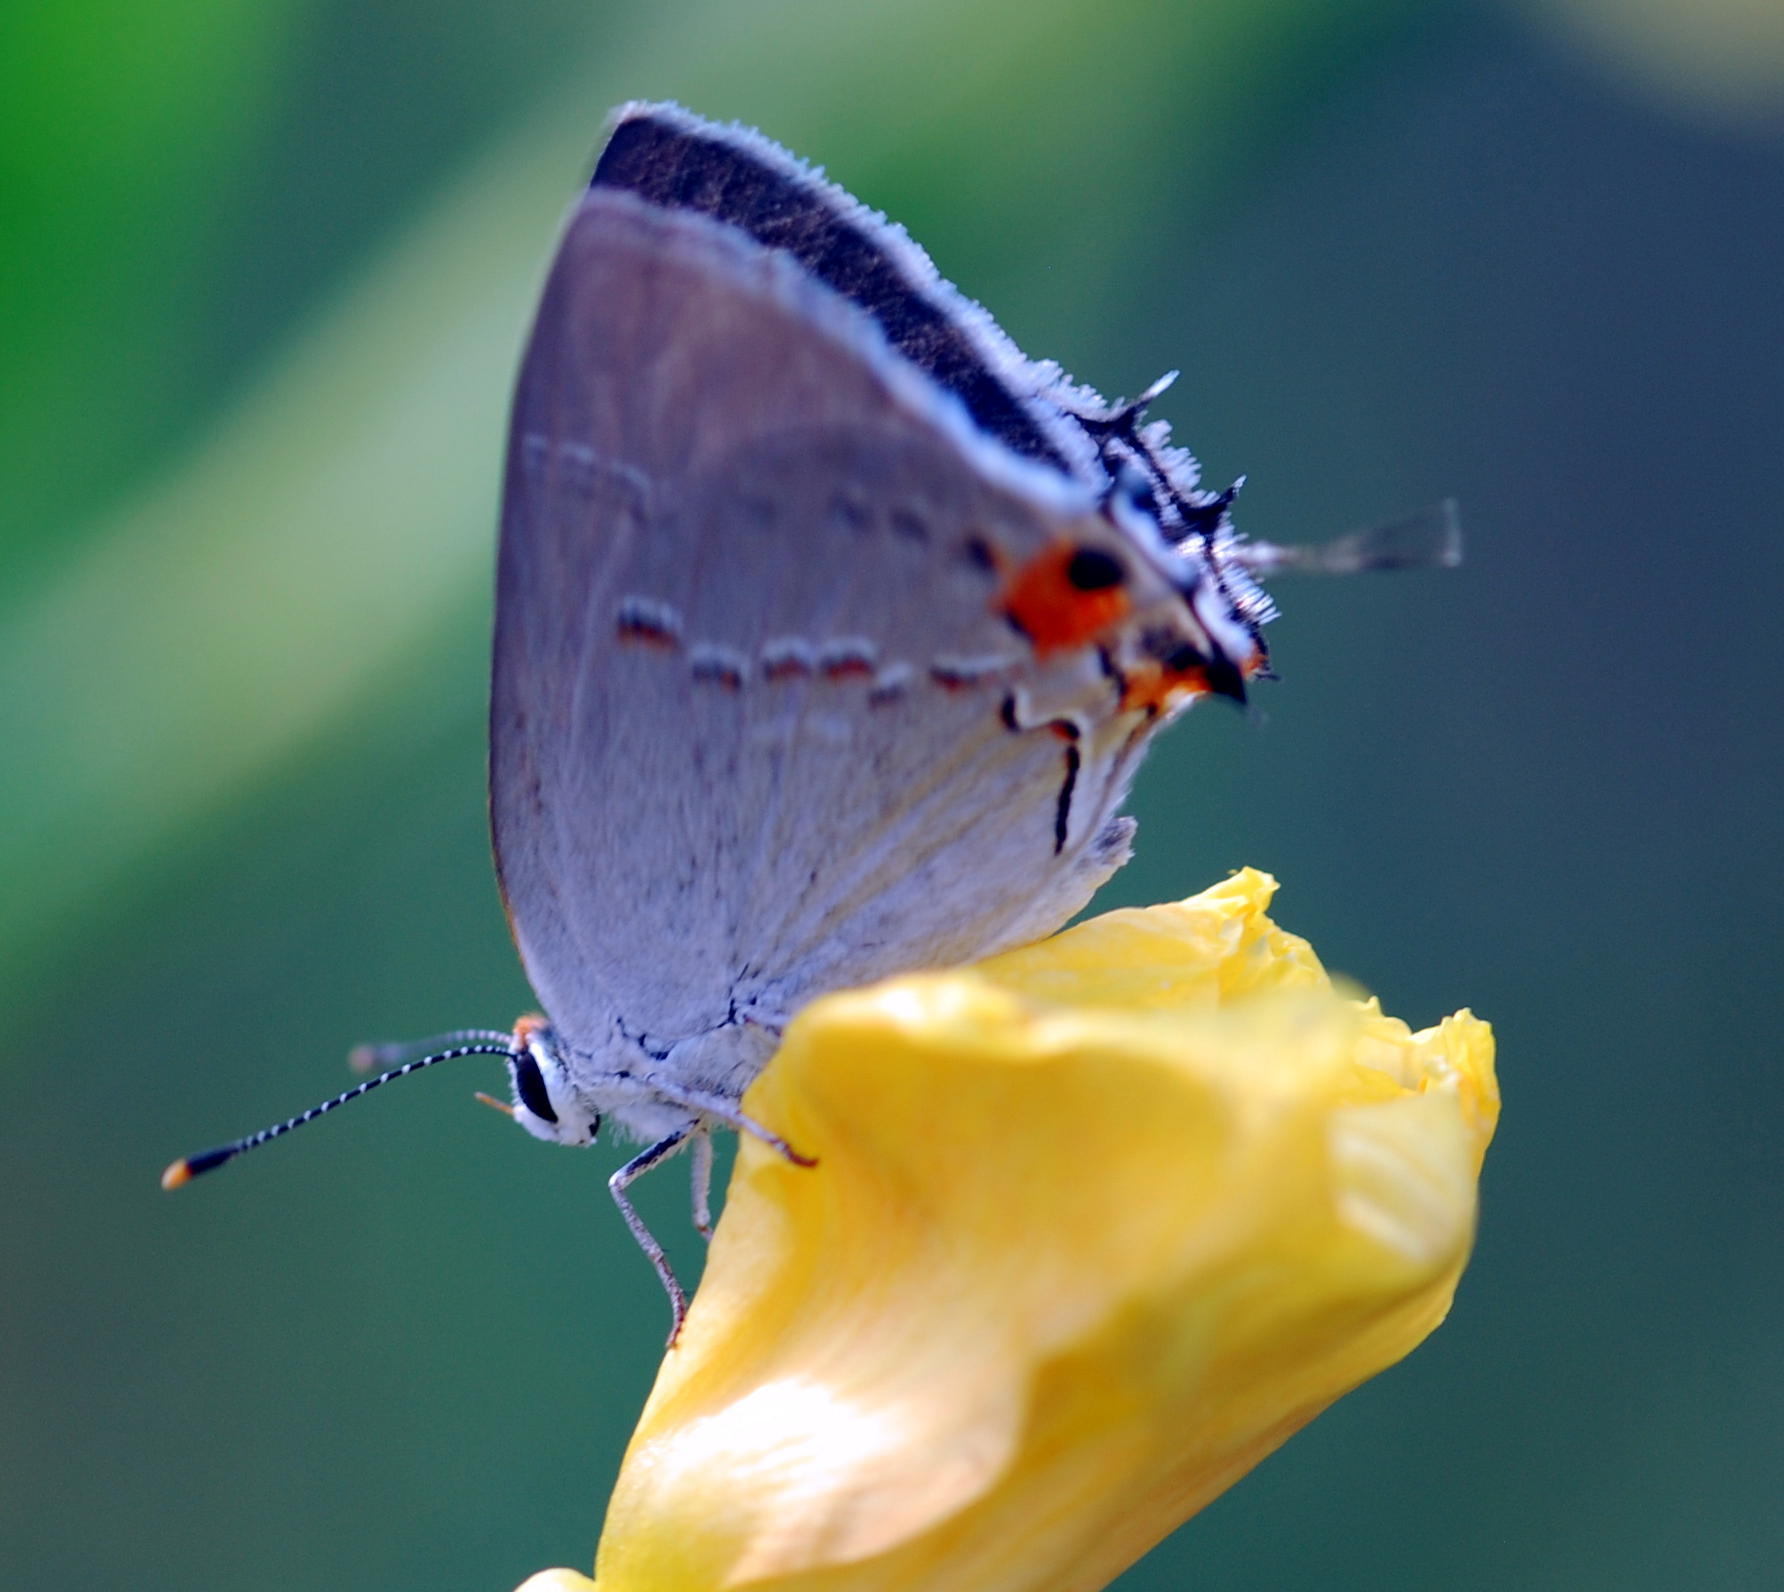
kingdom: Animalia
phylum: Arthropoda
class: Insecta
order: Lepidoptera
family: Lycaenidae
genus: Strymon
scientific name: Strymon melinus
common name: Gray hairstreak
